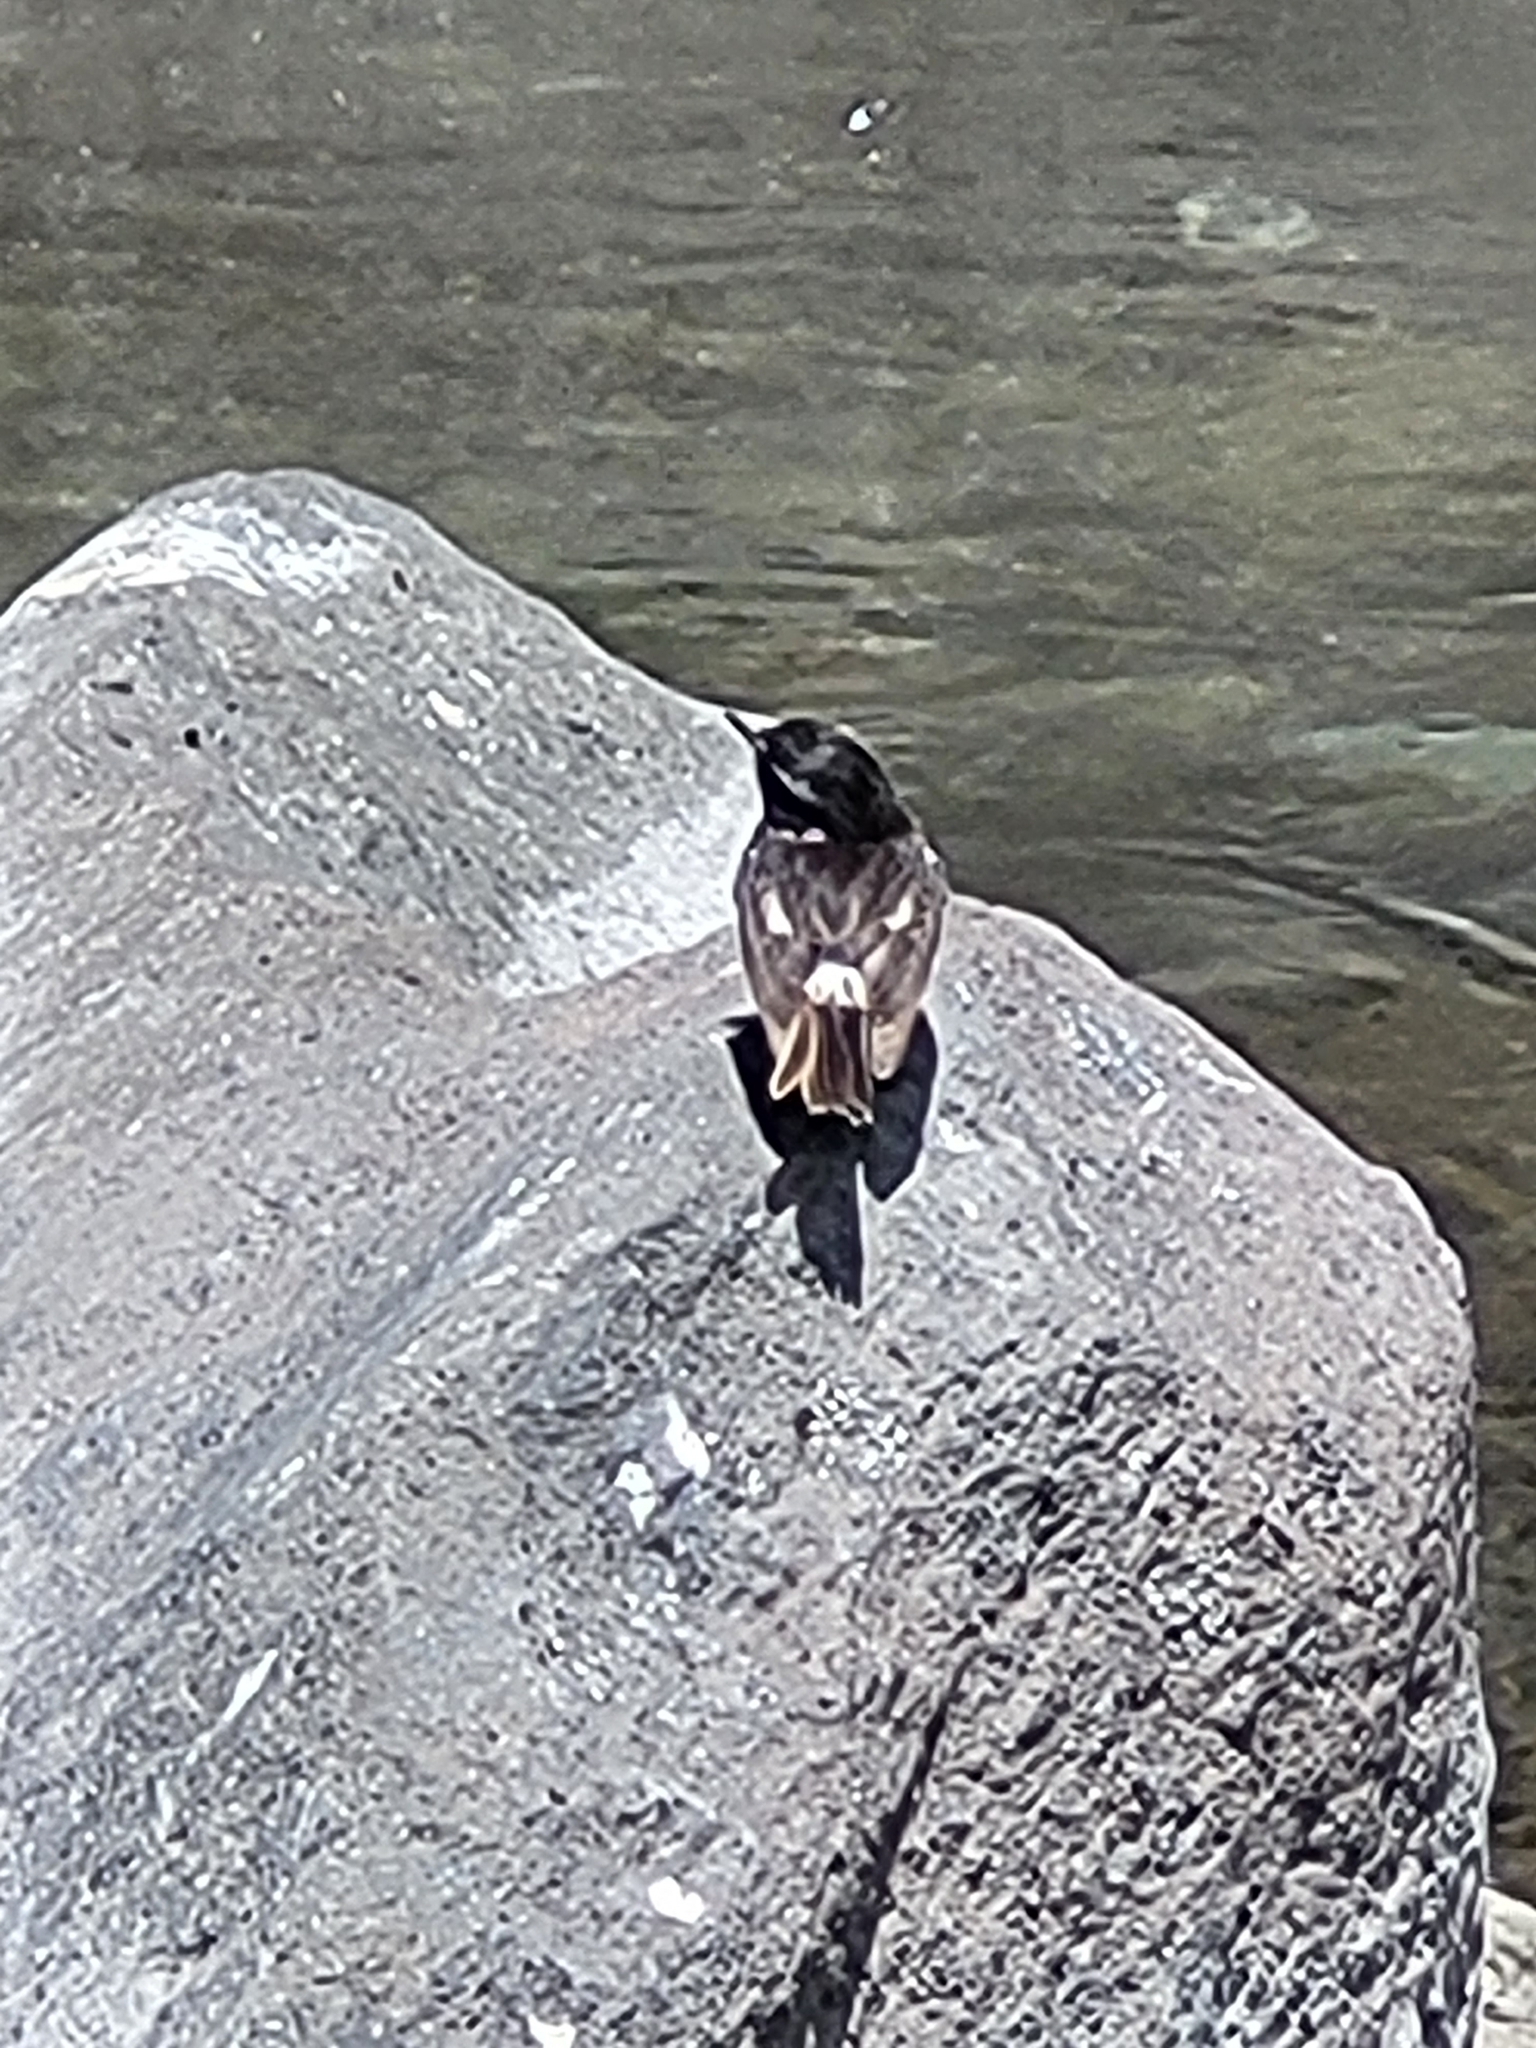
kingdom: Animalia
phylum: Chordata
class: Aves
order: Passeriformes
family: Muscicapidae
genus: Saxicola
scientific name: Saxicola tectes
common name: Reunion stonechat
